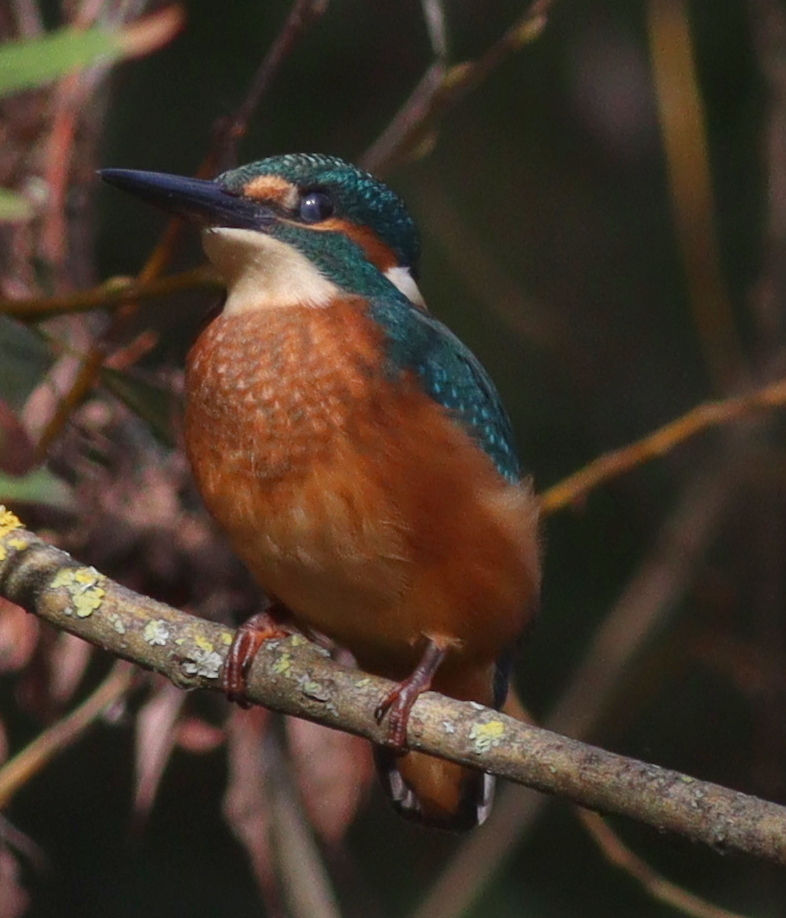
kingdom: Animalia
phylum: Chordata
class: Aves
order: Coraciiformes
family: Alcedinidae
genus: Alcedo
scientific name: Alcedo atthis
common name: Common kingfisher
